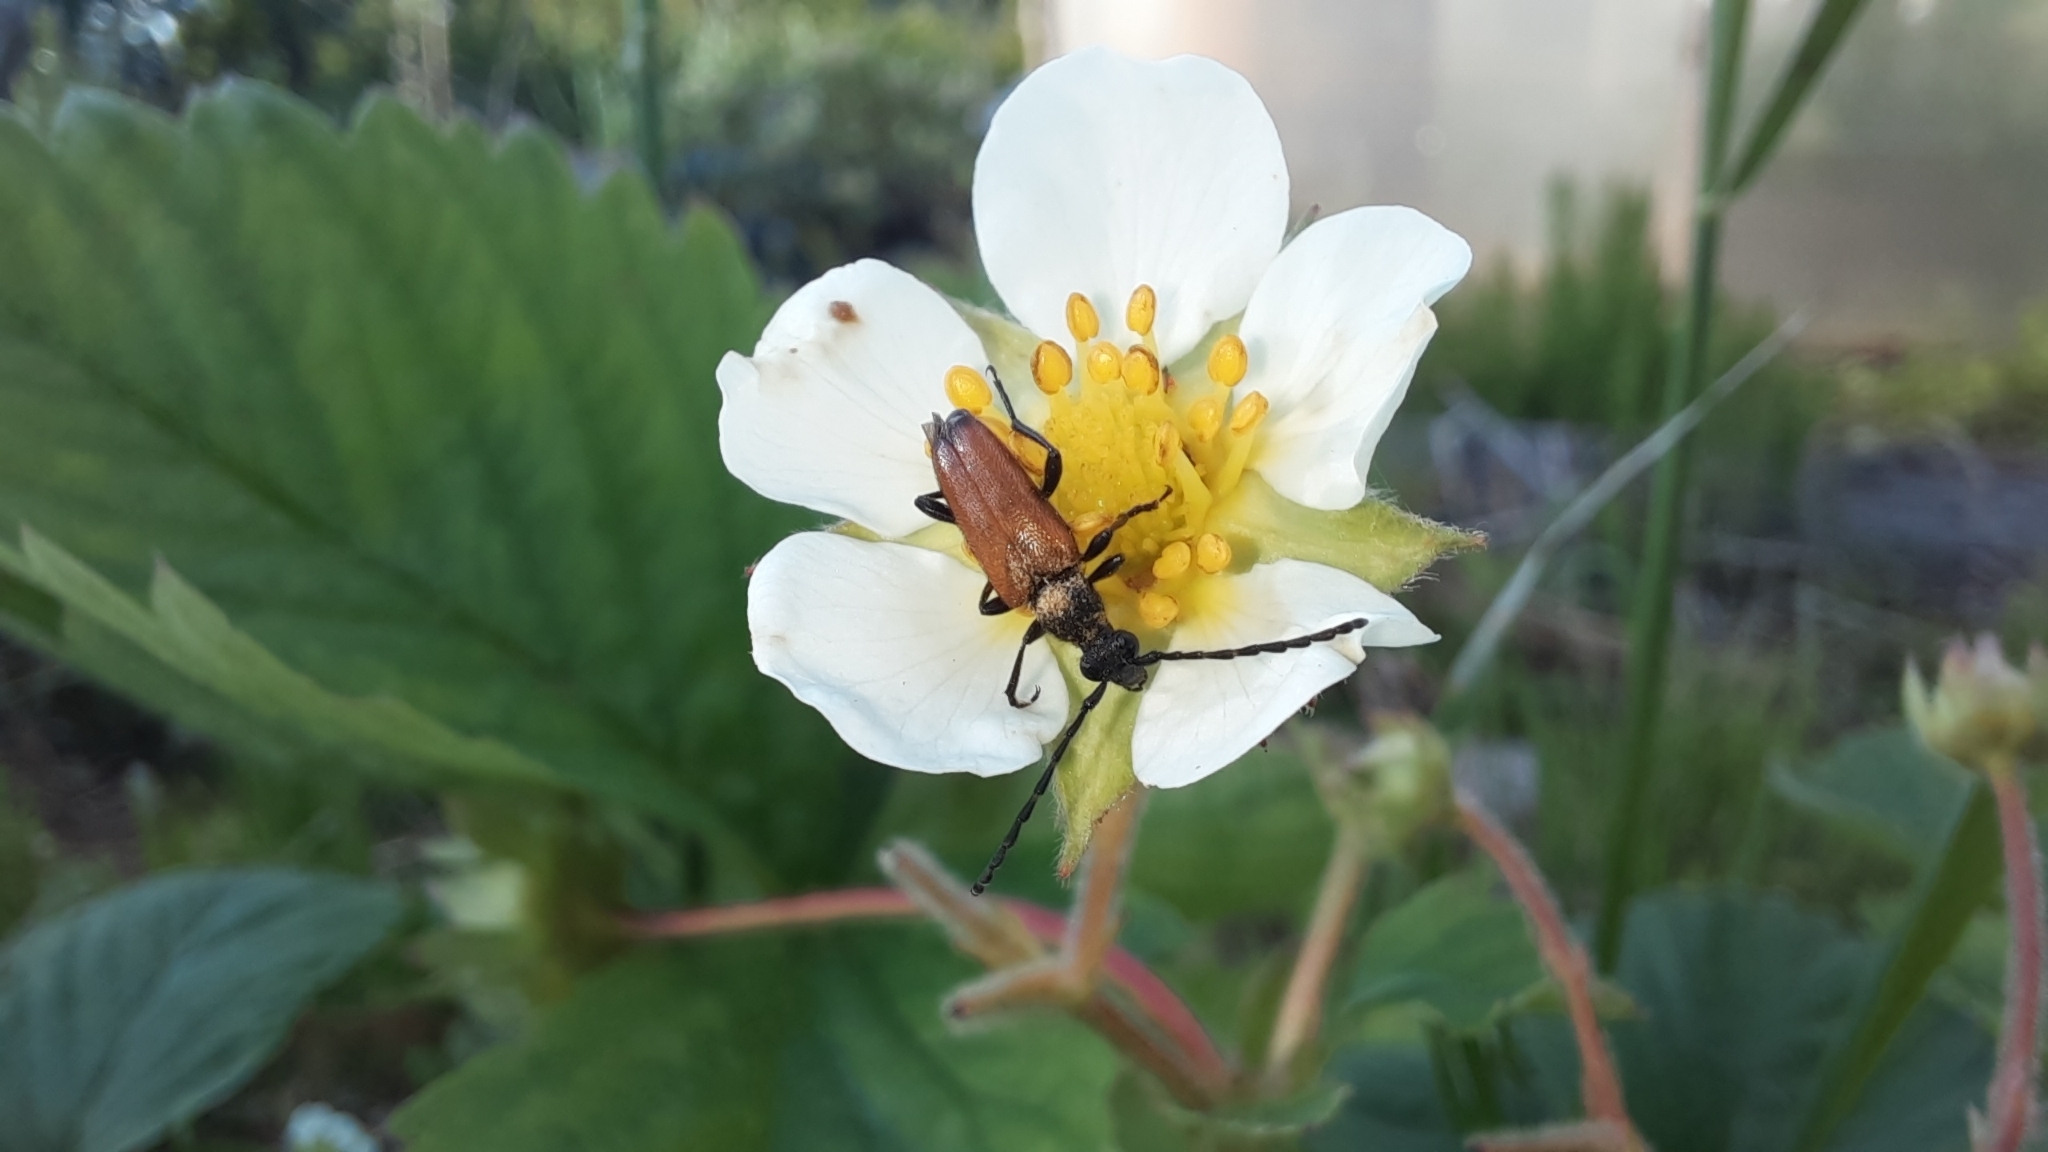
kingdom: Animalia
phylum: Arthropoda
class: Insecta
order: Coleoptera
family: Cerambycidae
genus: Paracorymbia
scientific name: Paracorymbia maculicornis
